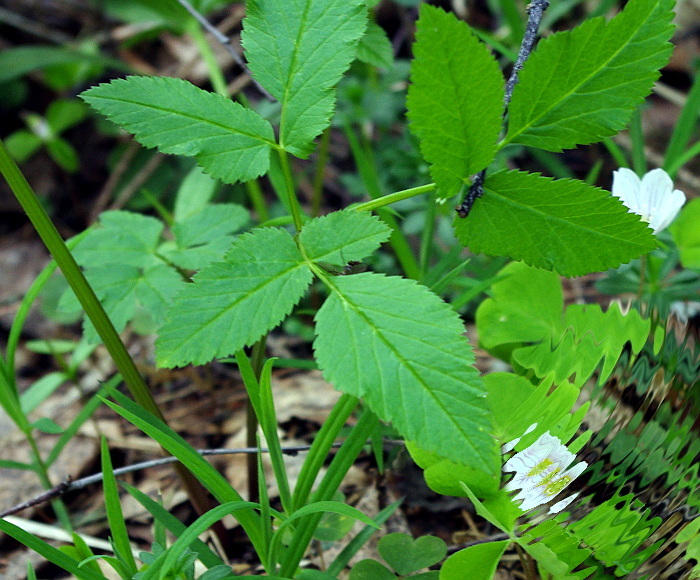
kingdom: Plantae
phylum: Tracheophyta
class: Magnoliopsida
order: Apiales
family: Apiaceae
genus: Aegopodium
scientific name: Aegopodium podagraria
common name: Ground-elder
